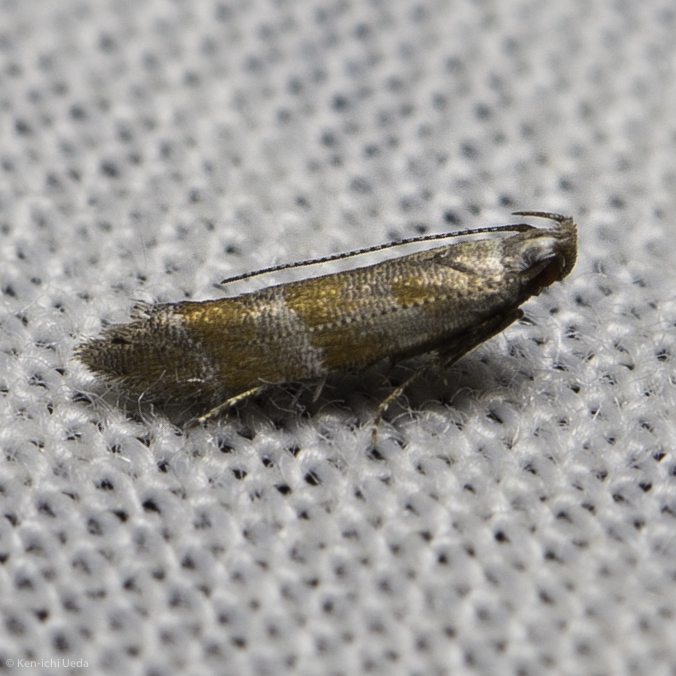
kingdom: Animalia
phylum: Arthropoda
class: Insecta
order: Lepidoptera
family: Gelechiidae
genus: Battaristis
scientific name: Battaristis vittella
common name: Orange stripe-backed moth
